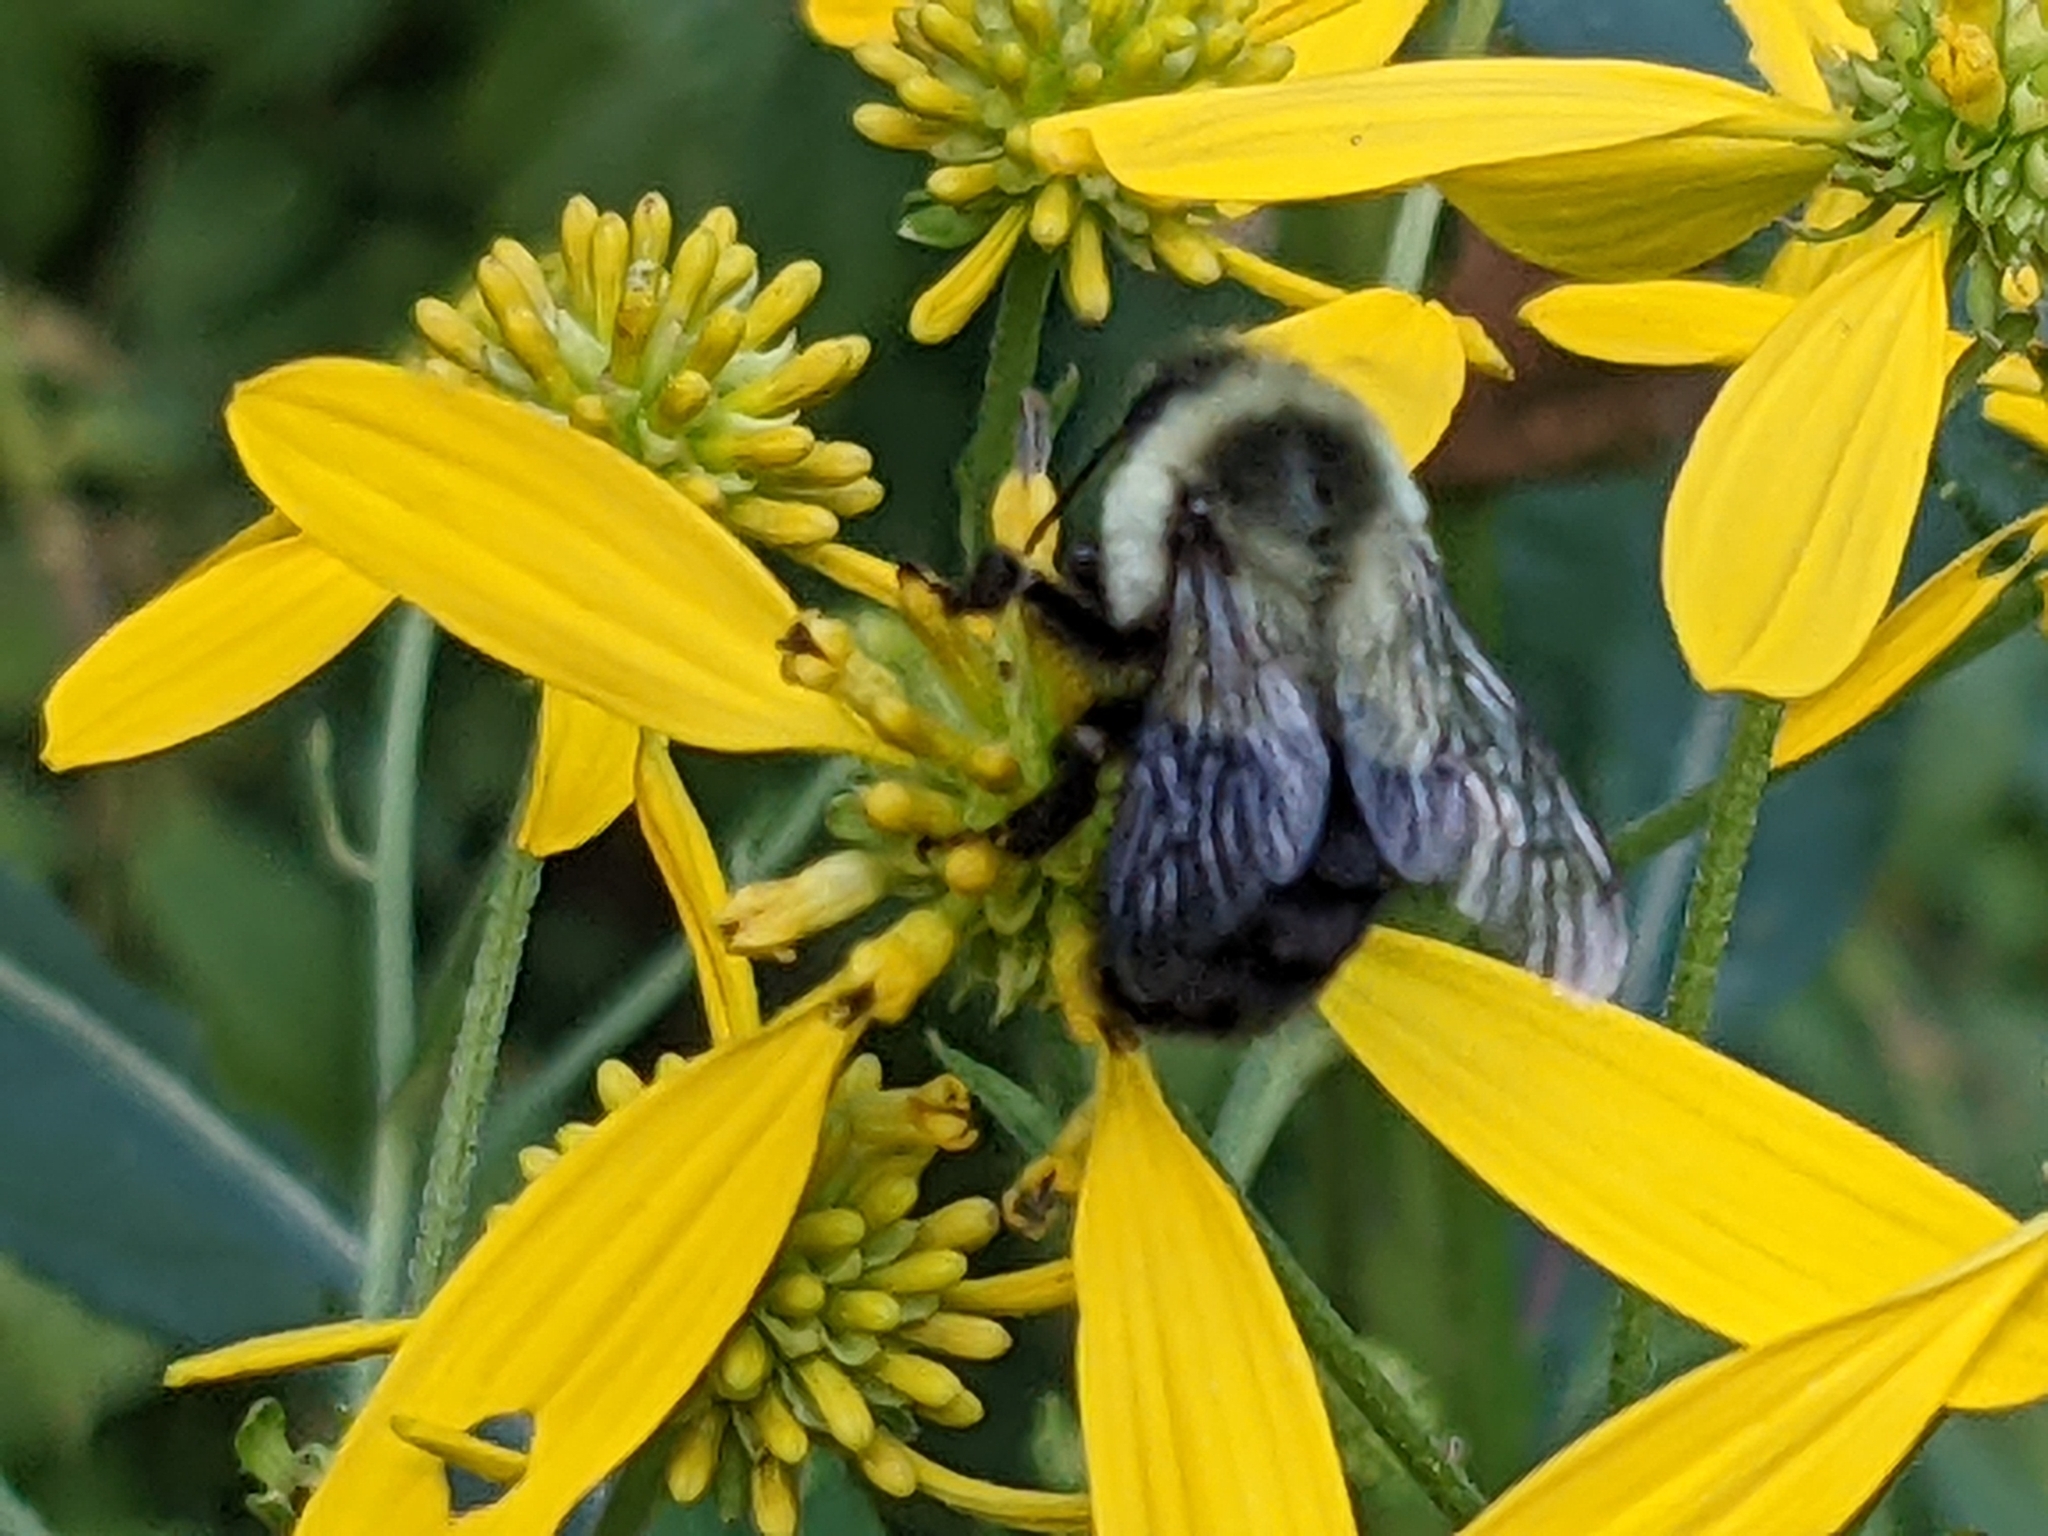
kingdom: Animalia
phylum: Arthropoda
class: Insecta
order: Hymenoptera
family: Apidae
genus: Bombus
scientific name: Bombus impatiens
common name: Common eastern bumble bee
